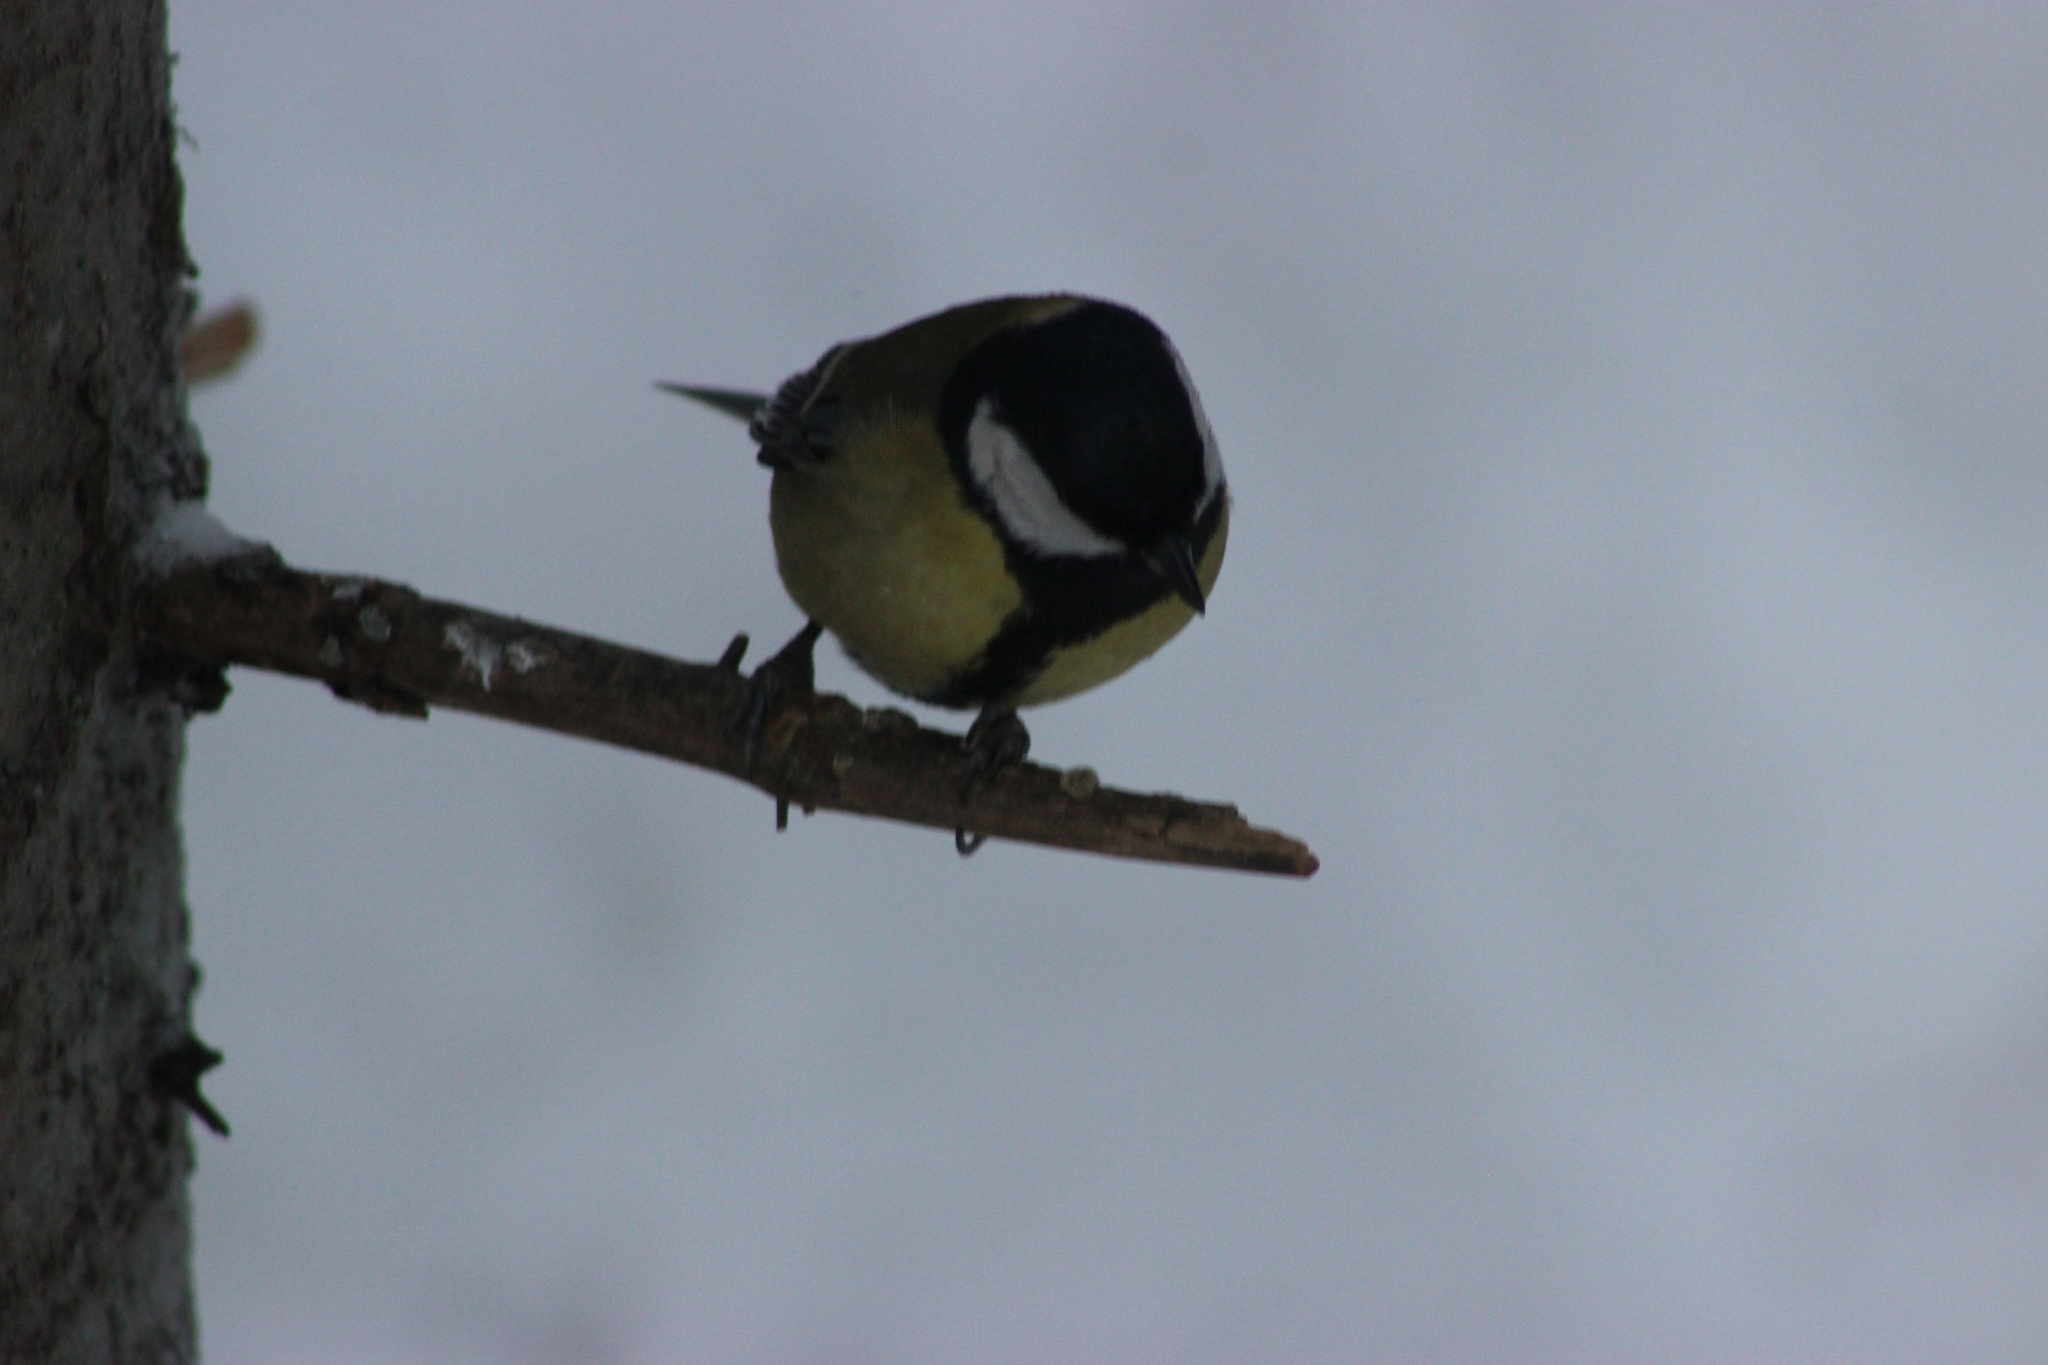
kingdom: Animalia
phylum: Chordata
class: Aves
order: Passeriformes
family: Paridae
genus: Parus
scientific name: Parus major
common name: Great tit
